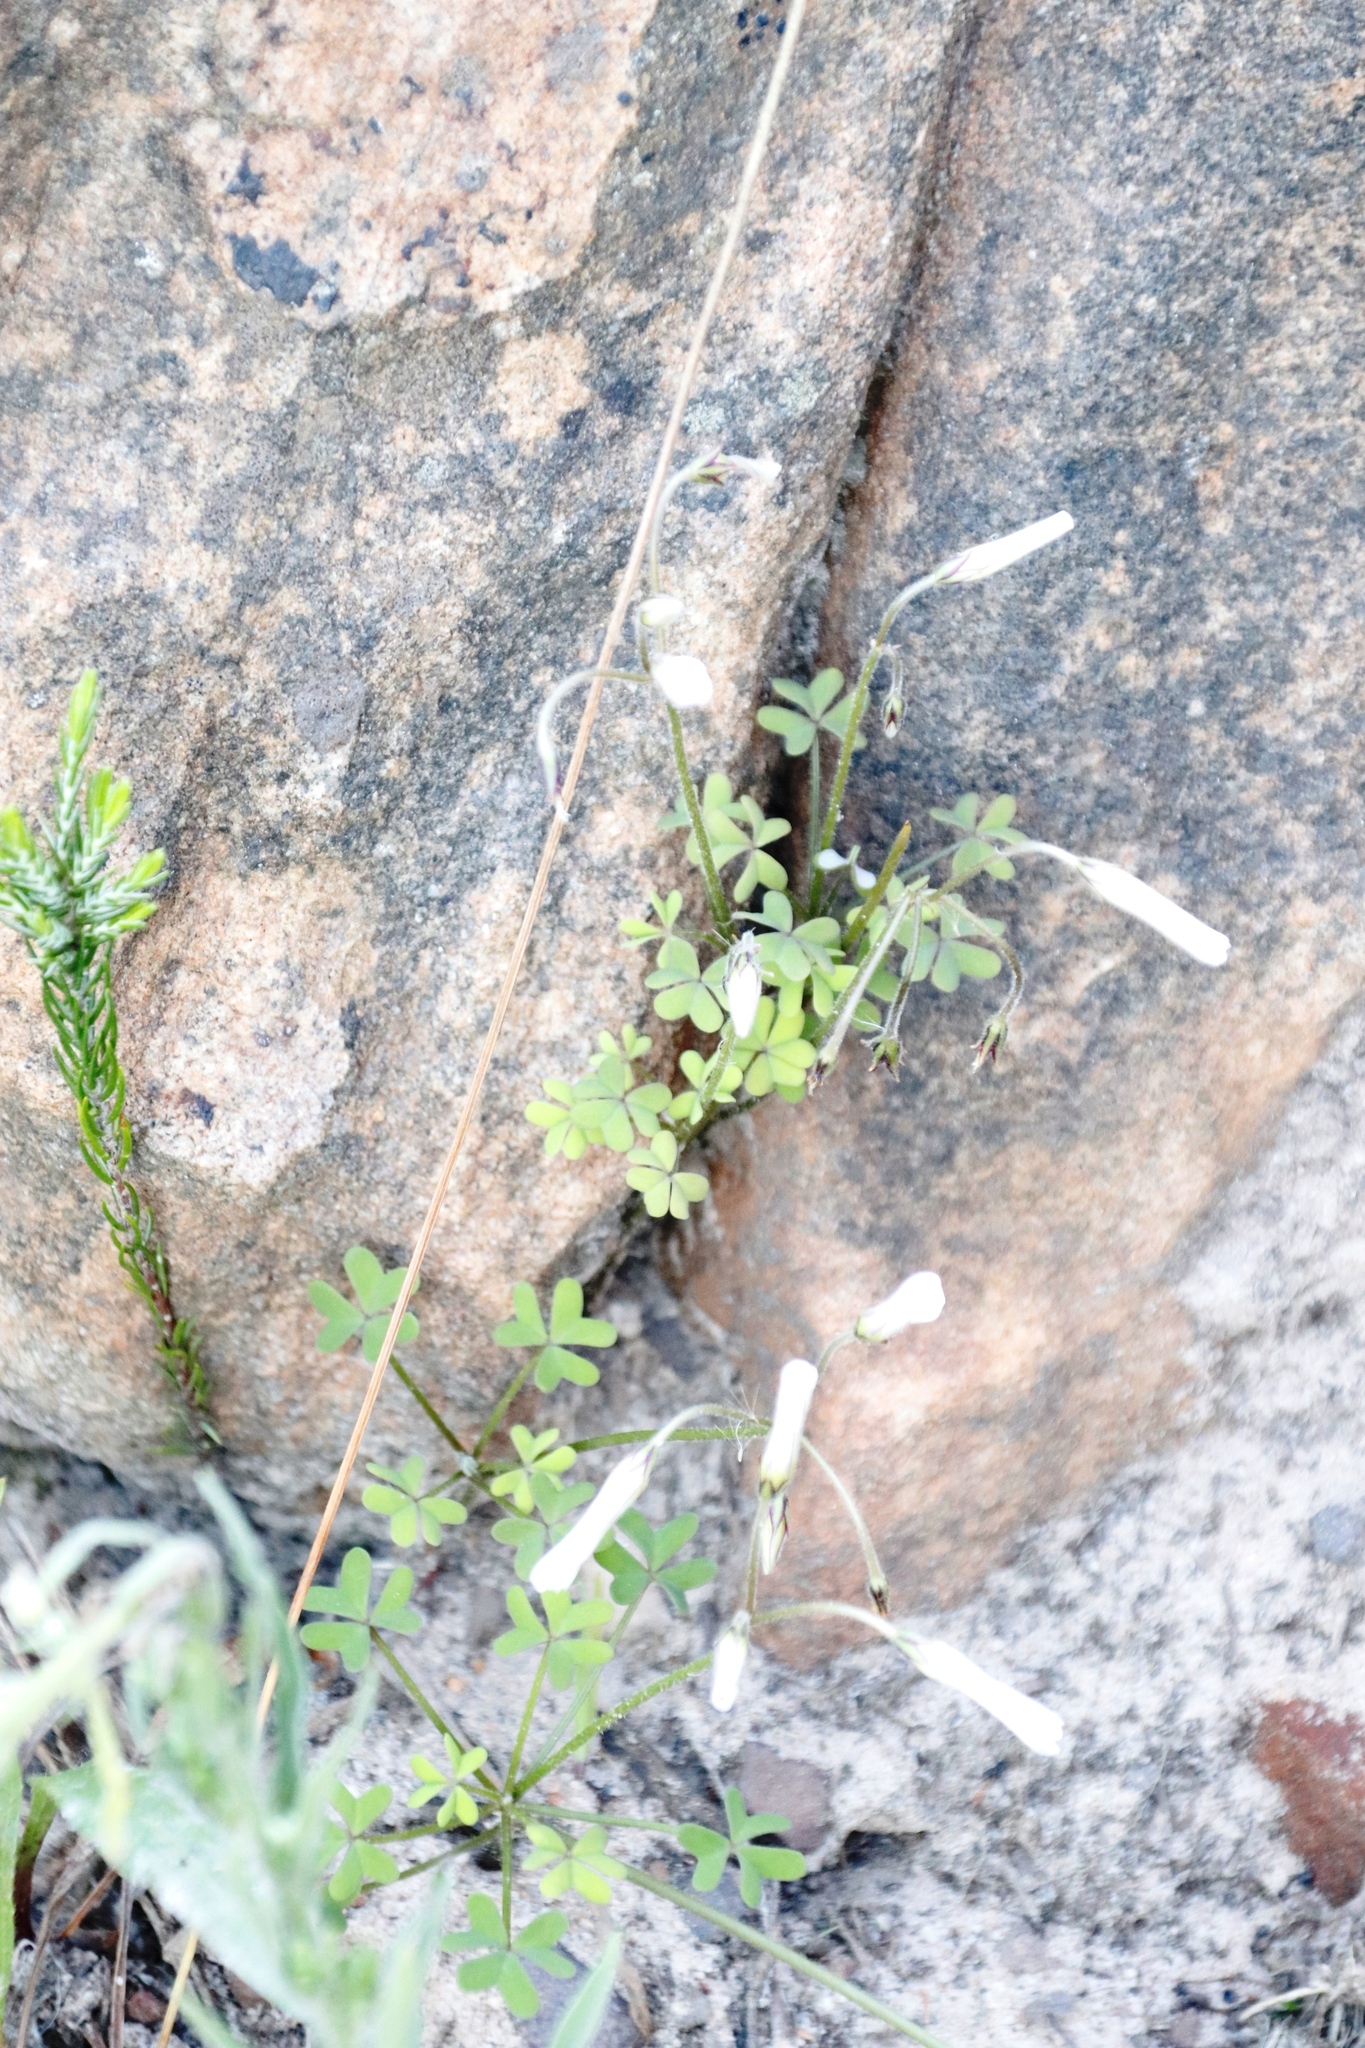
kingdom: Plantae
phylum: Tracheophyta
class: Magnoliopsida
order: Oxalidales
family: Oxalidaceae
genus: Oxalis
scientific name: Oxalis
